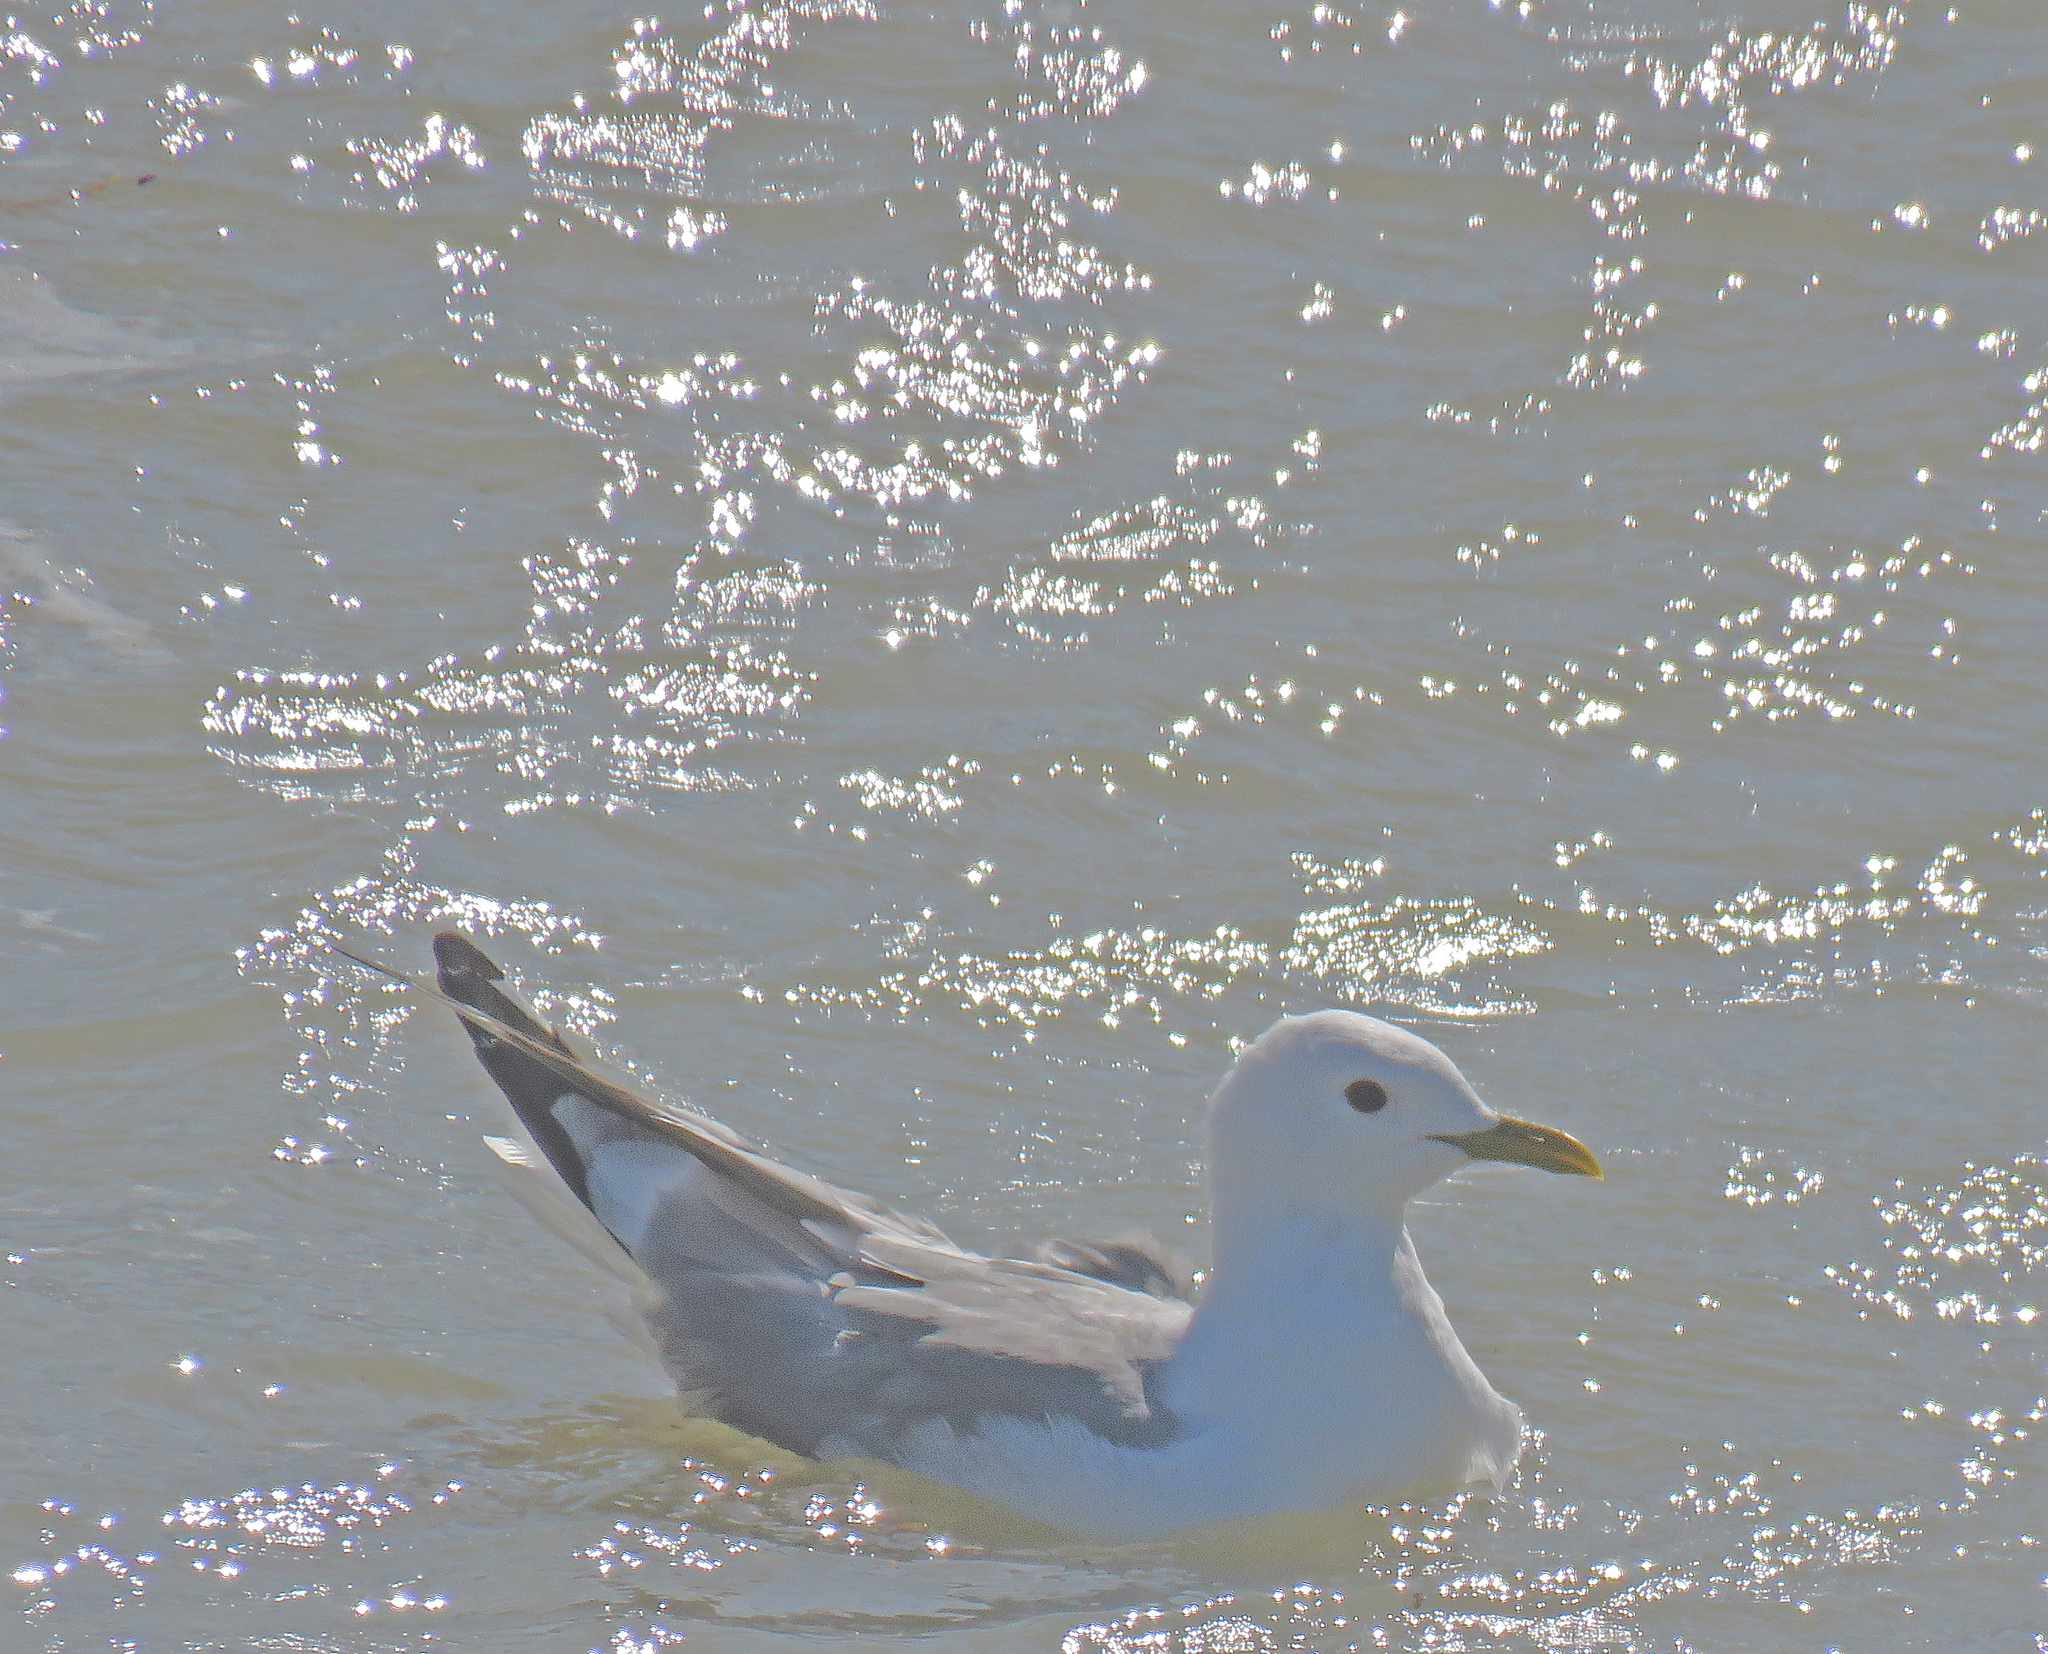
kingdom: Animalia
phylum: Chordata
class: Aves
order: Charadriiformes
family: Laridae
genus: Larus
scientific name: Larus brachyrhynchus
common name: Short-billed gull
